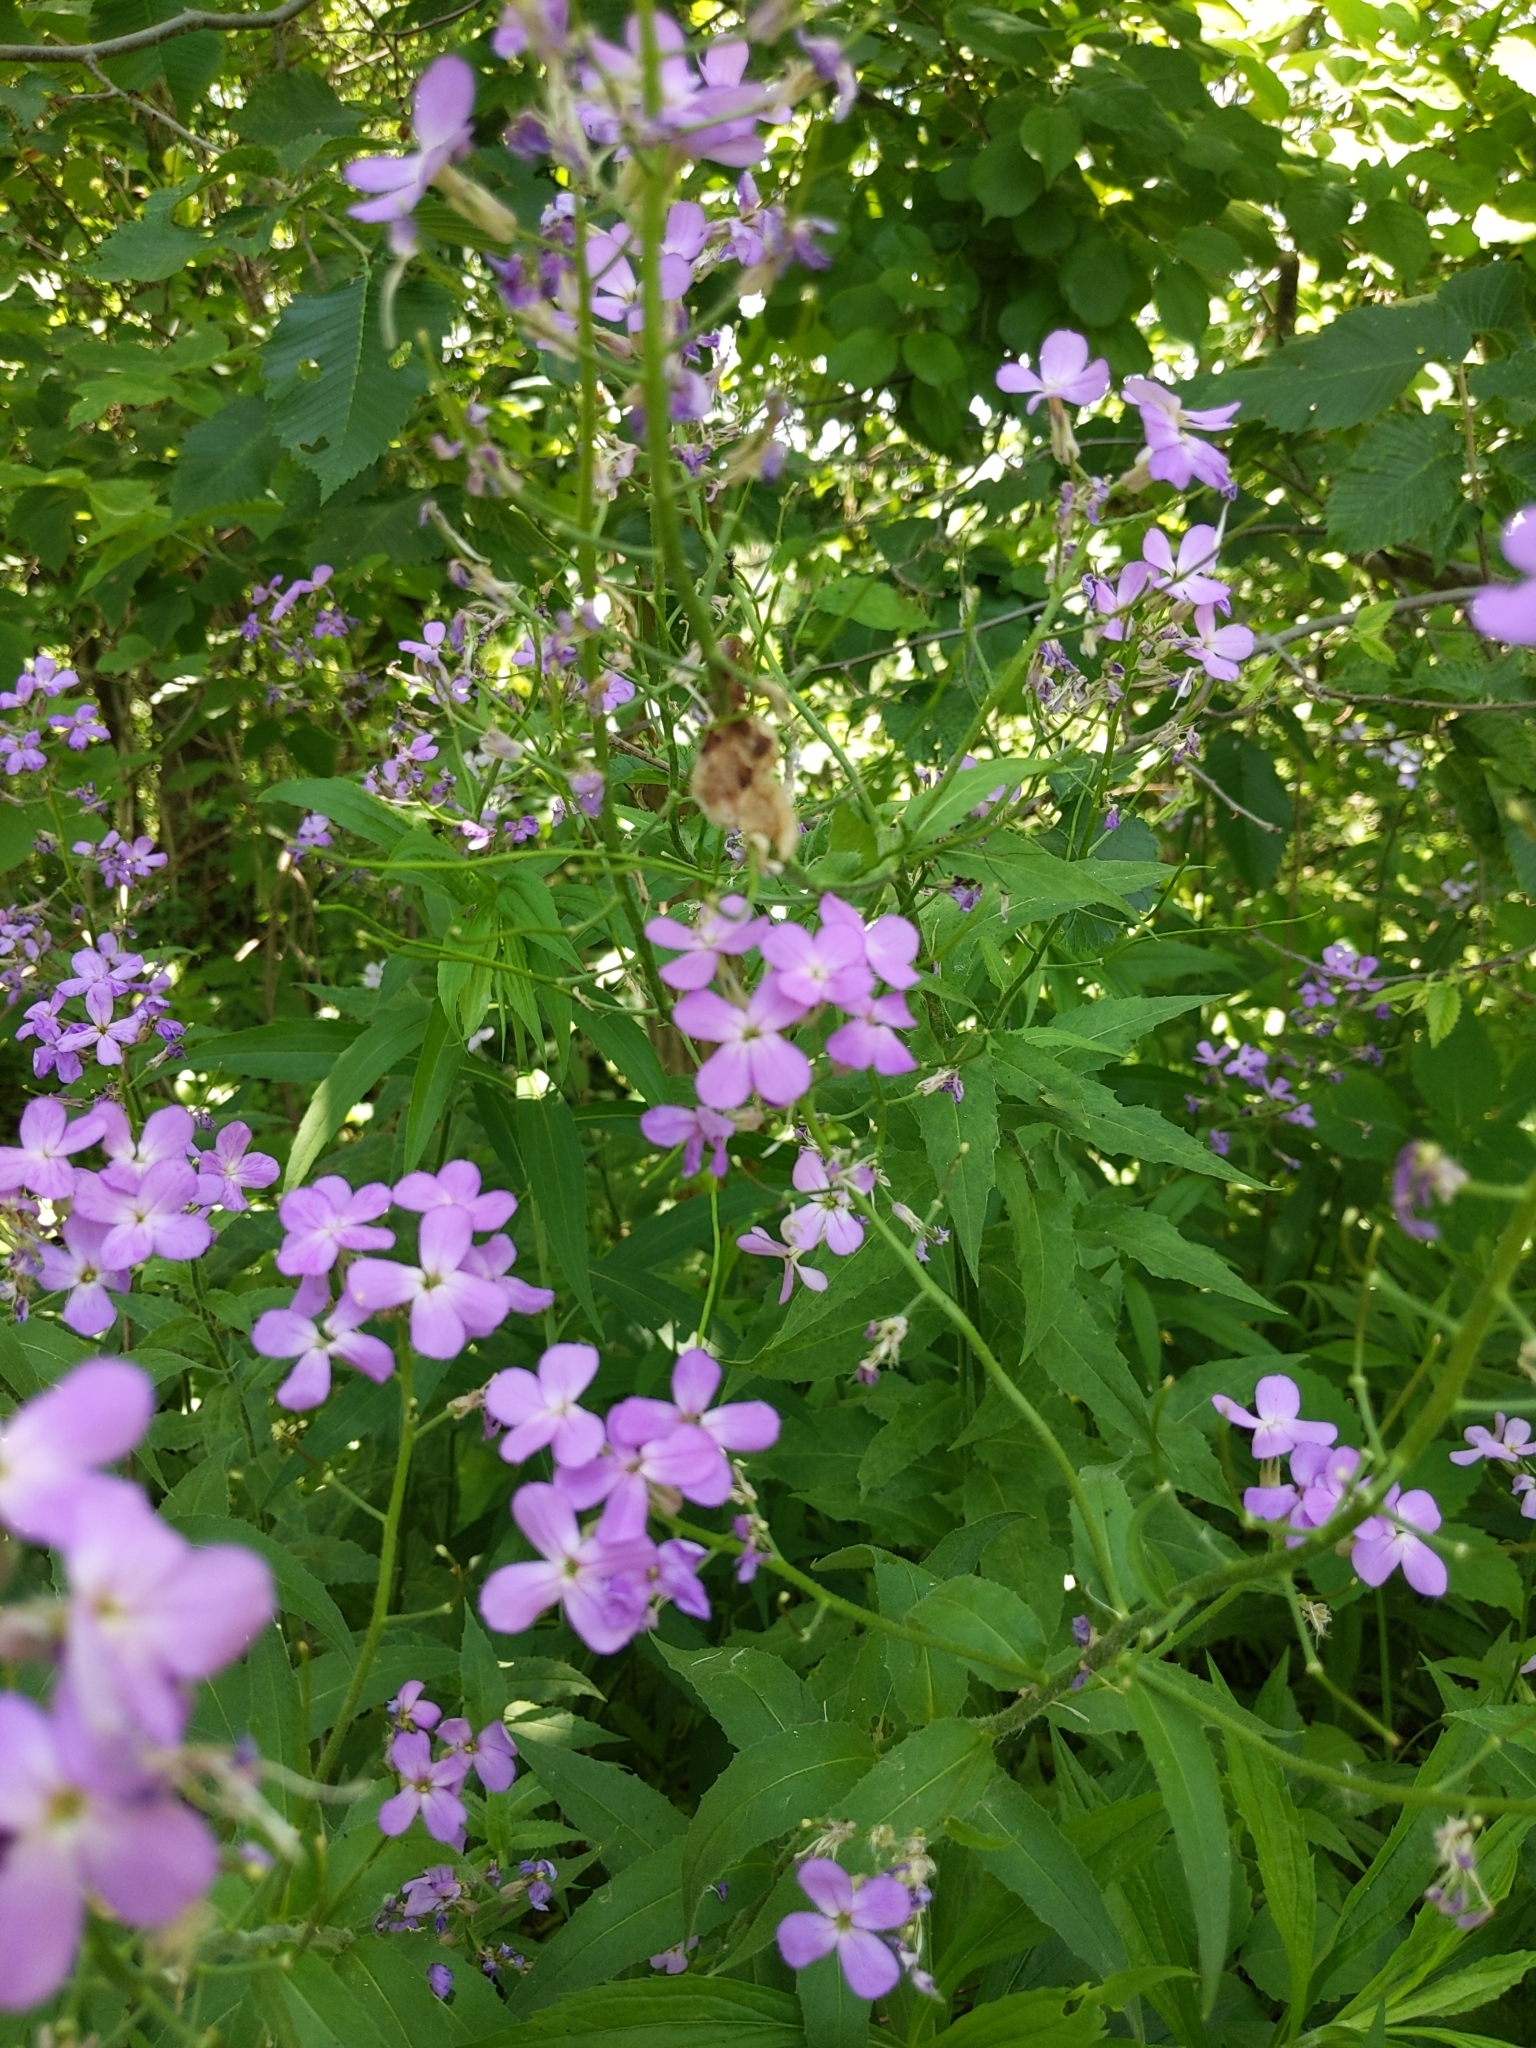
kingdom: Plantae
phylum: Tracheophyta
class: Magnoliopsida
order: Brassicales
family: Brassicaceae
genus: Hesperis
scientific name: Hesperis matronalis
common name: Dame's-violet
